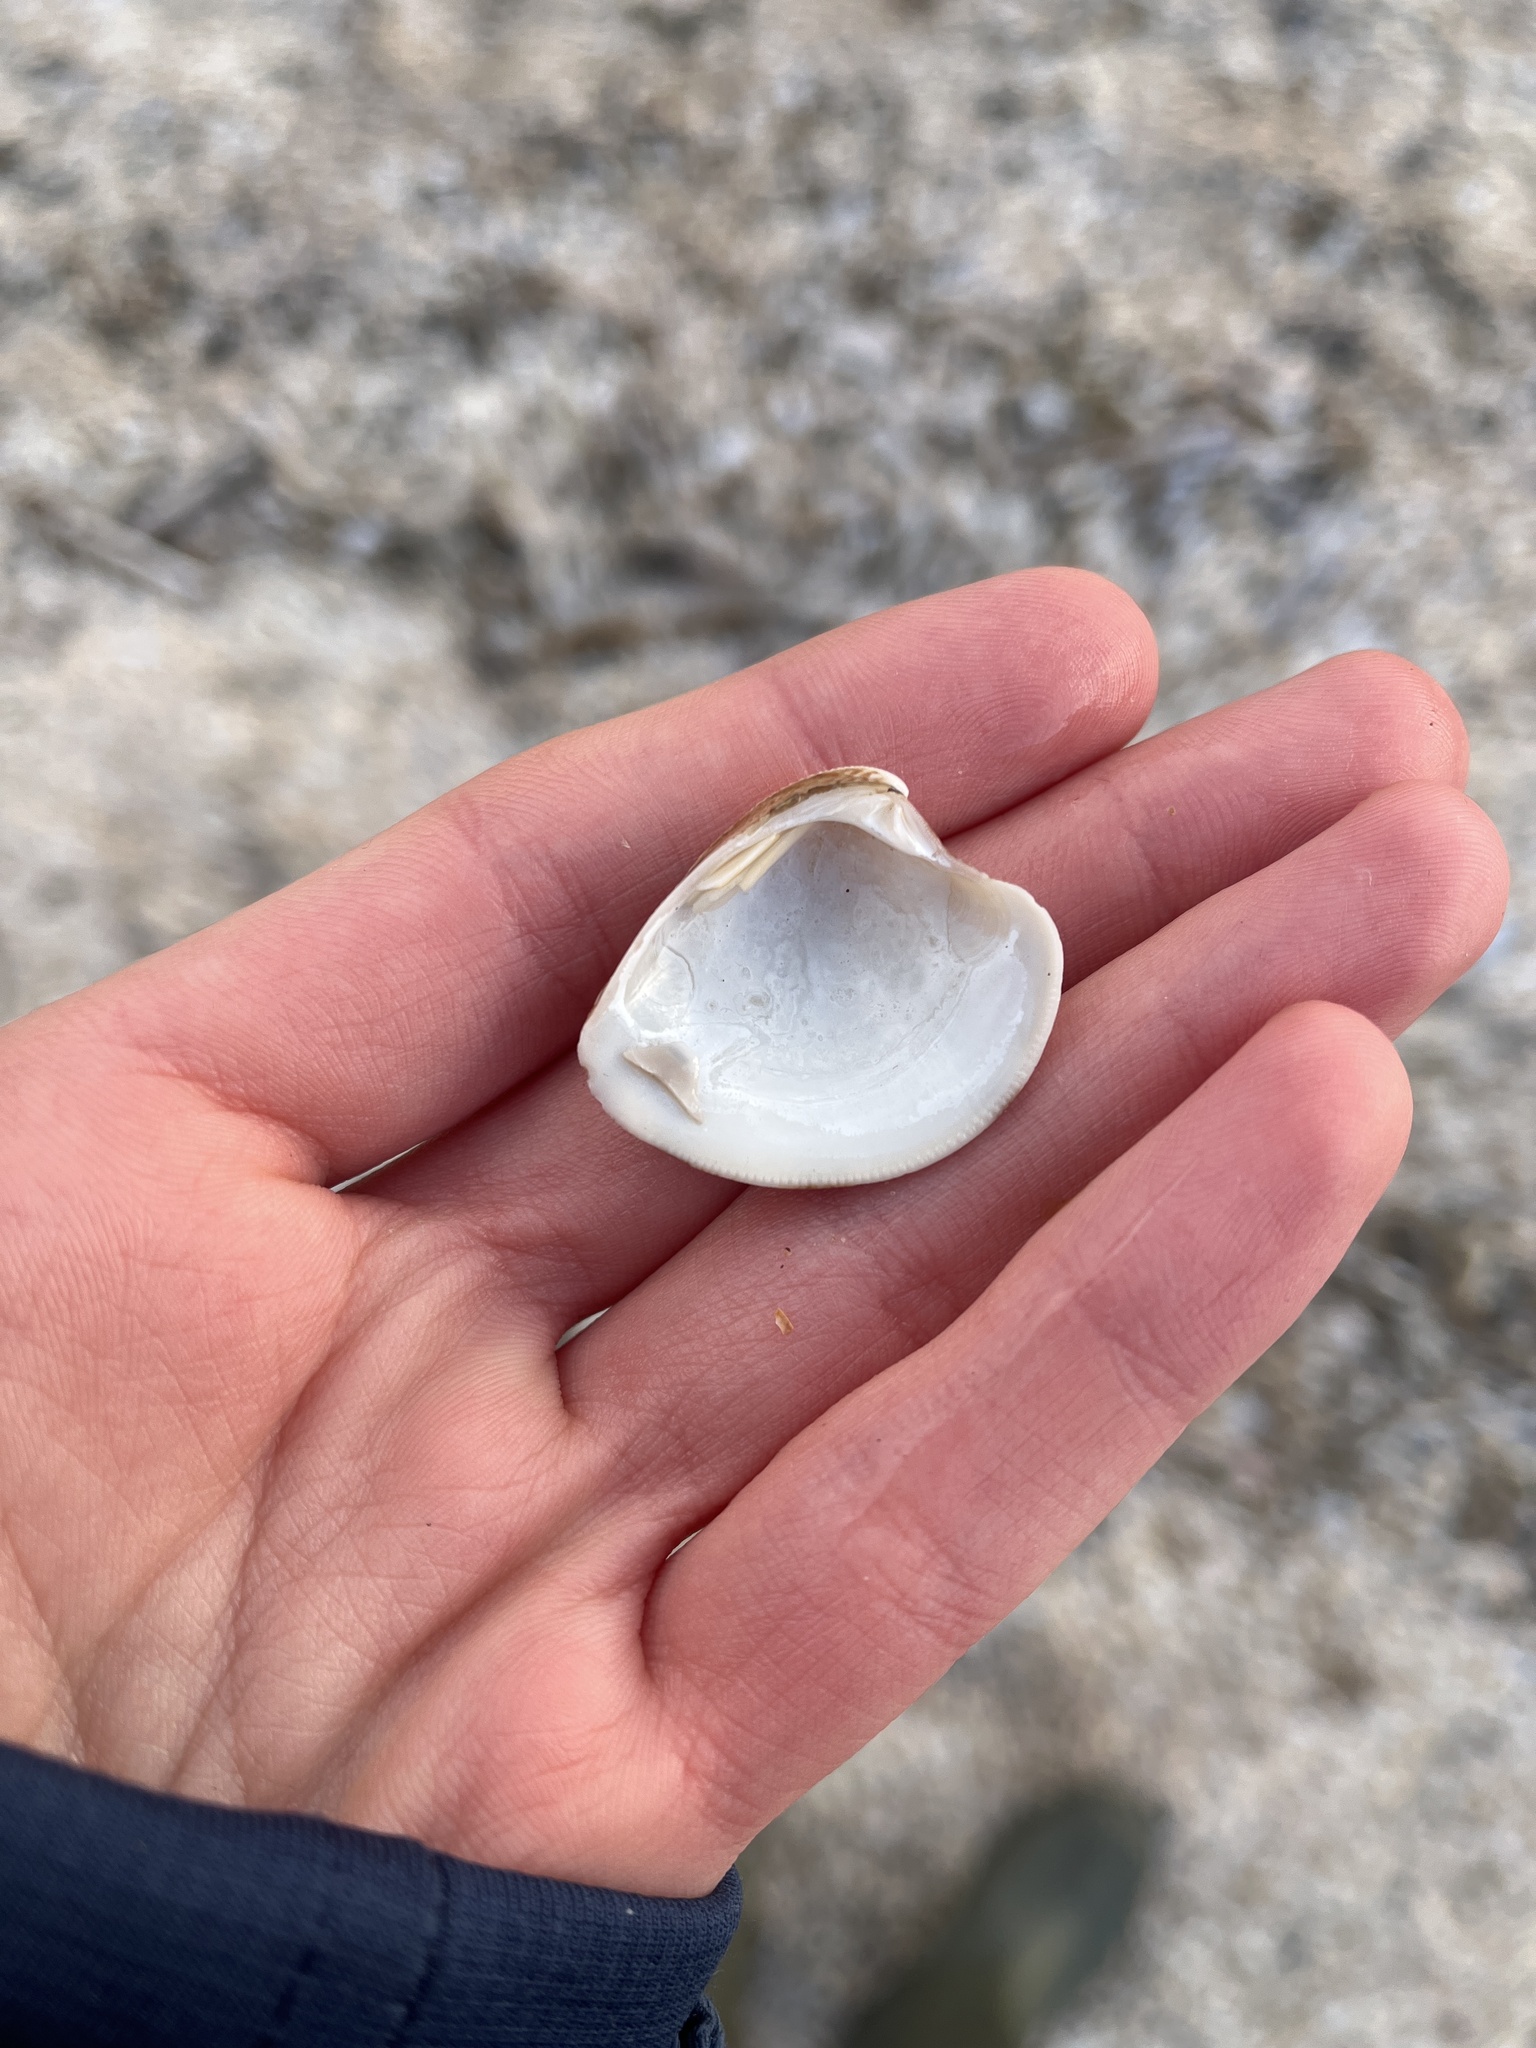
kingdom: Animalia
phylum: Mollusca
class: Bivalvia
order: Venerida
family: Veneridae
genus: Chamelea
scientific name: Chamelea striatula
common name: Striped venus
